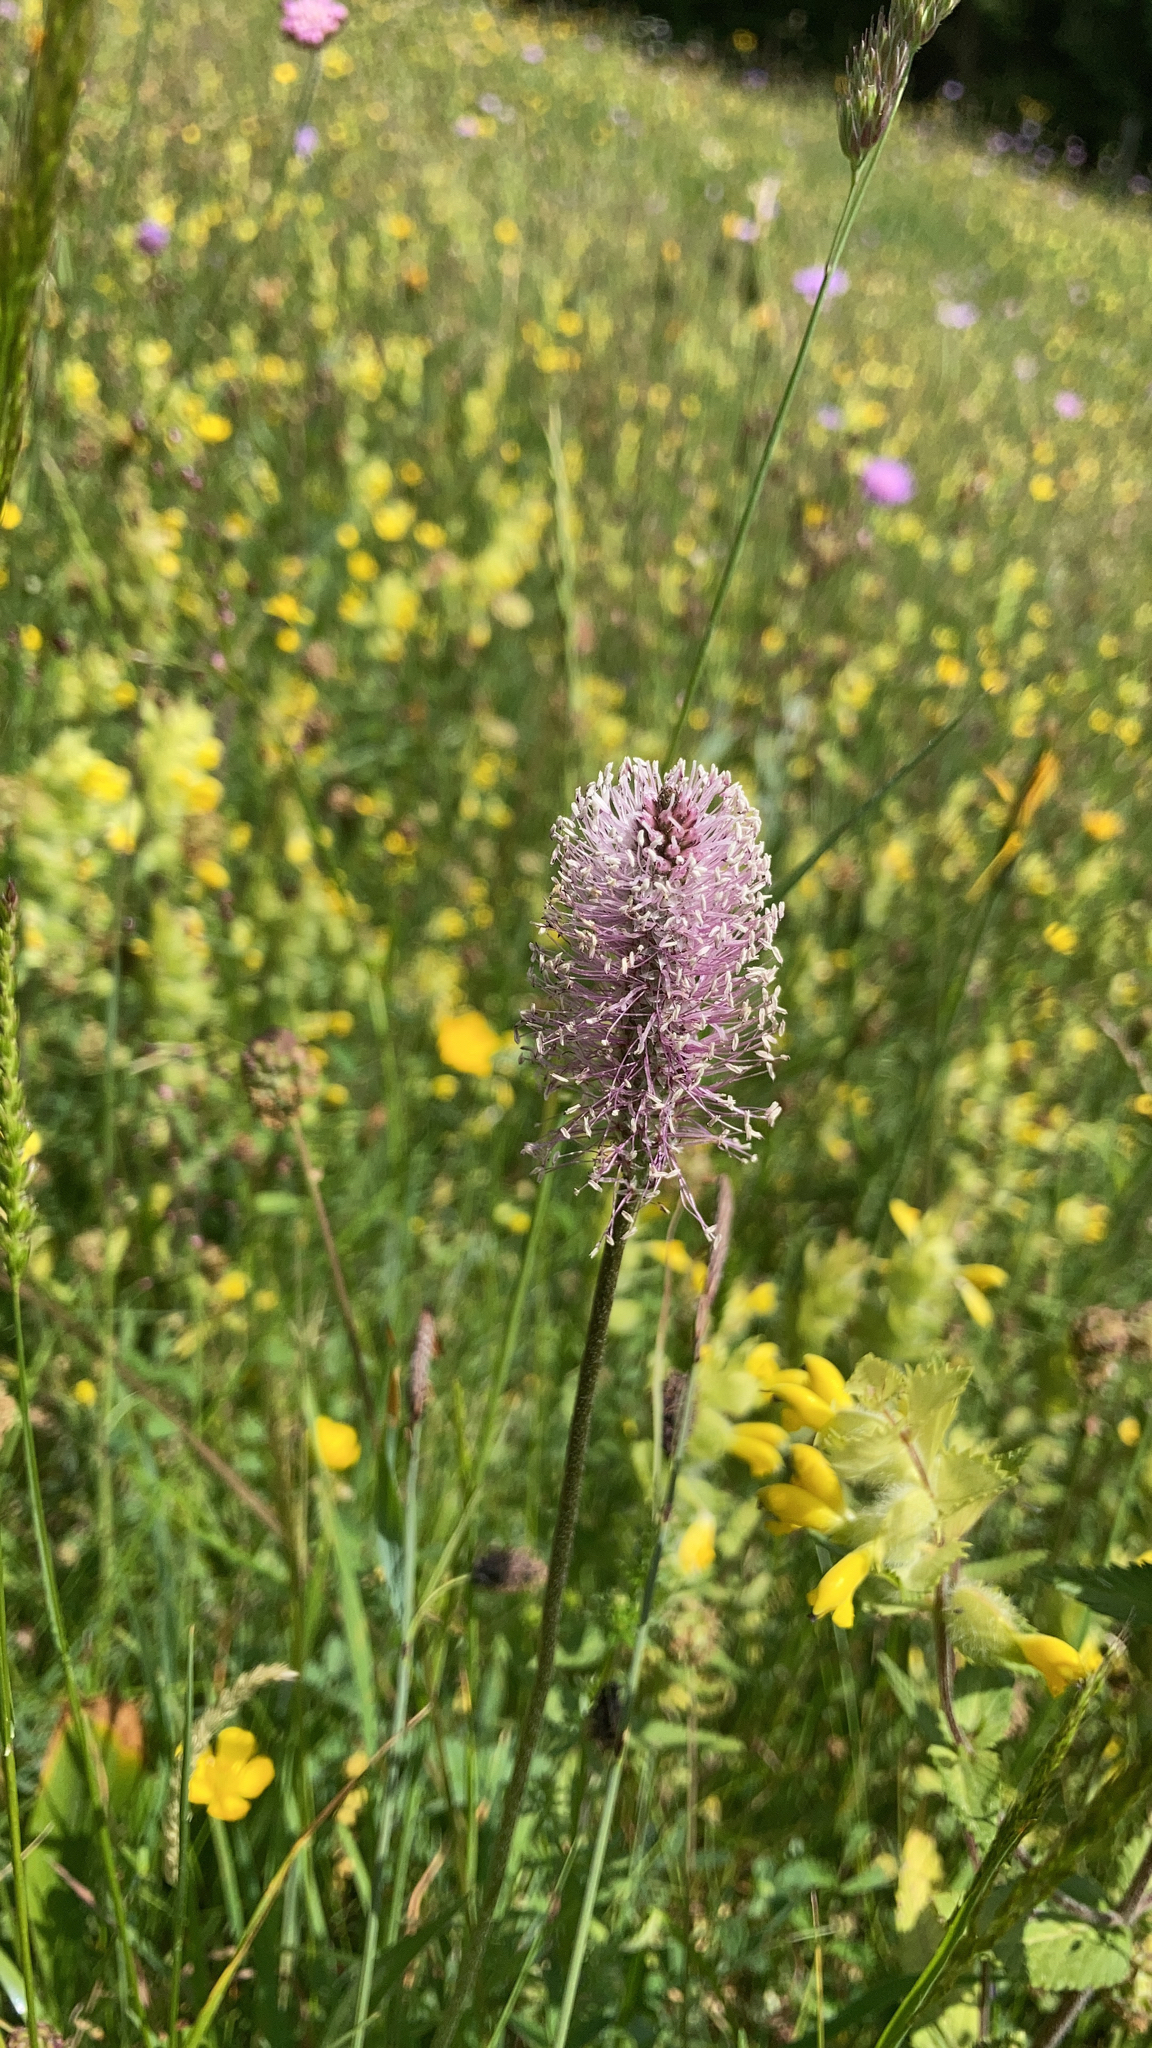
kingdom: Plantae
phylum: Tracheophyta
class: Magnoliopsida
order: Lamiales
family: Plantaginaceae
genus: Plantago
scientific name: Plantago media
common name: Hoary plantain
